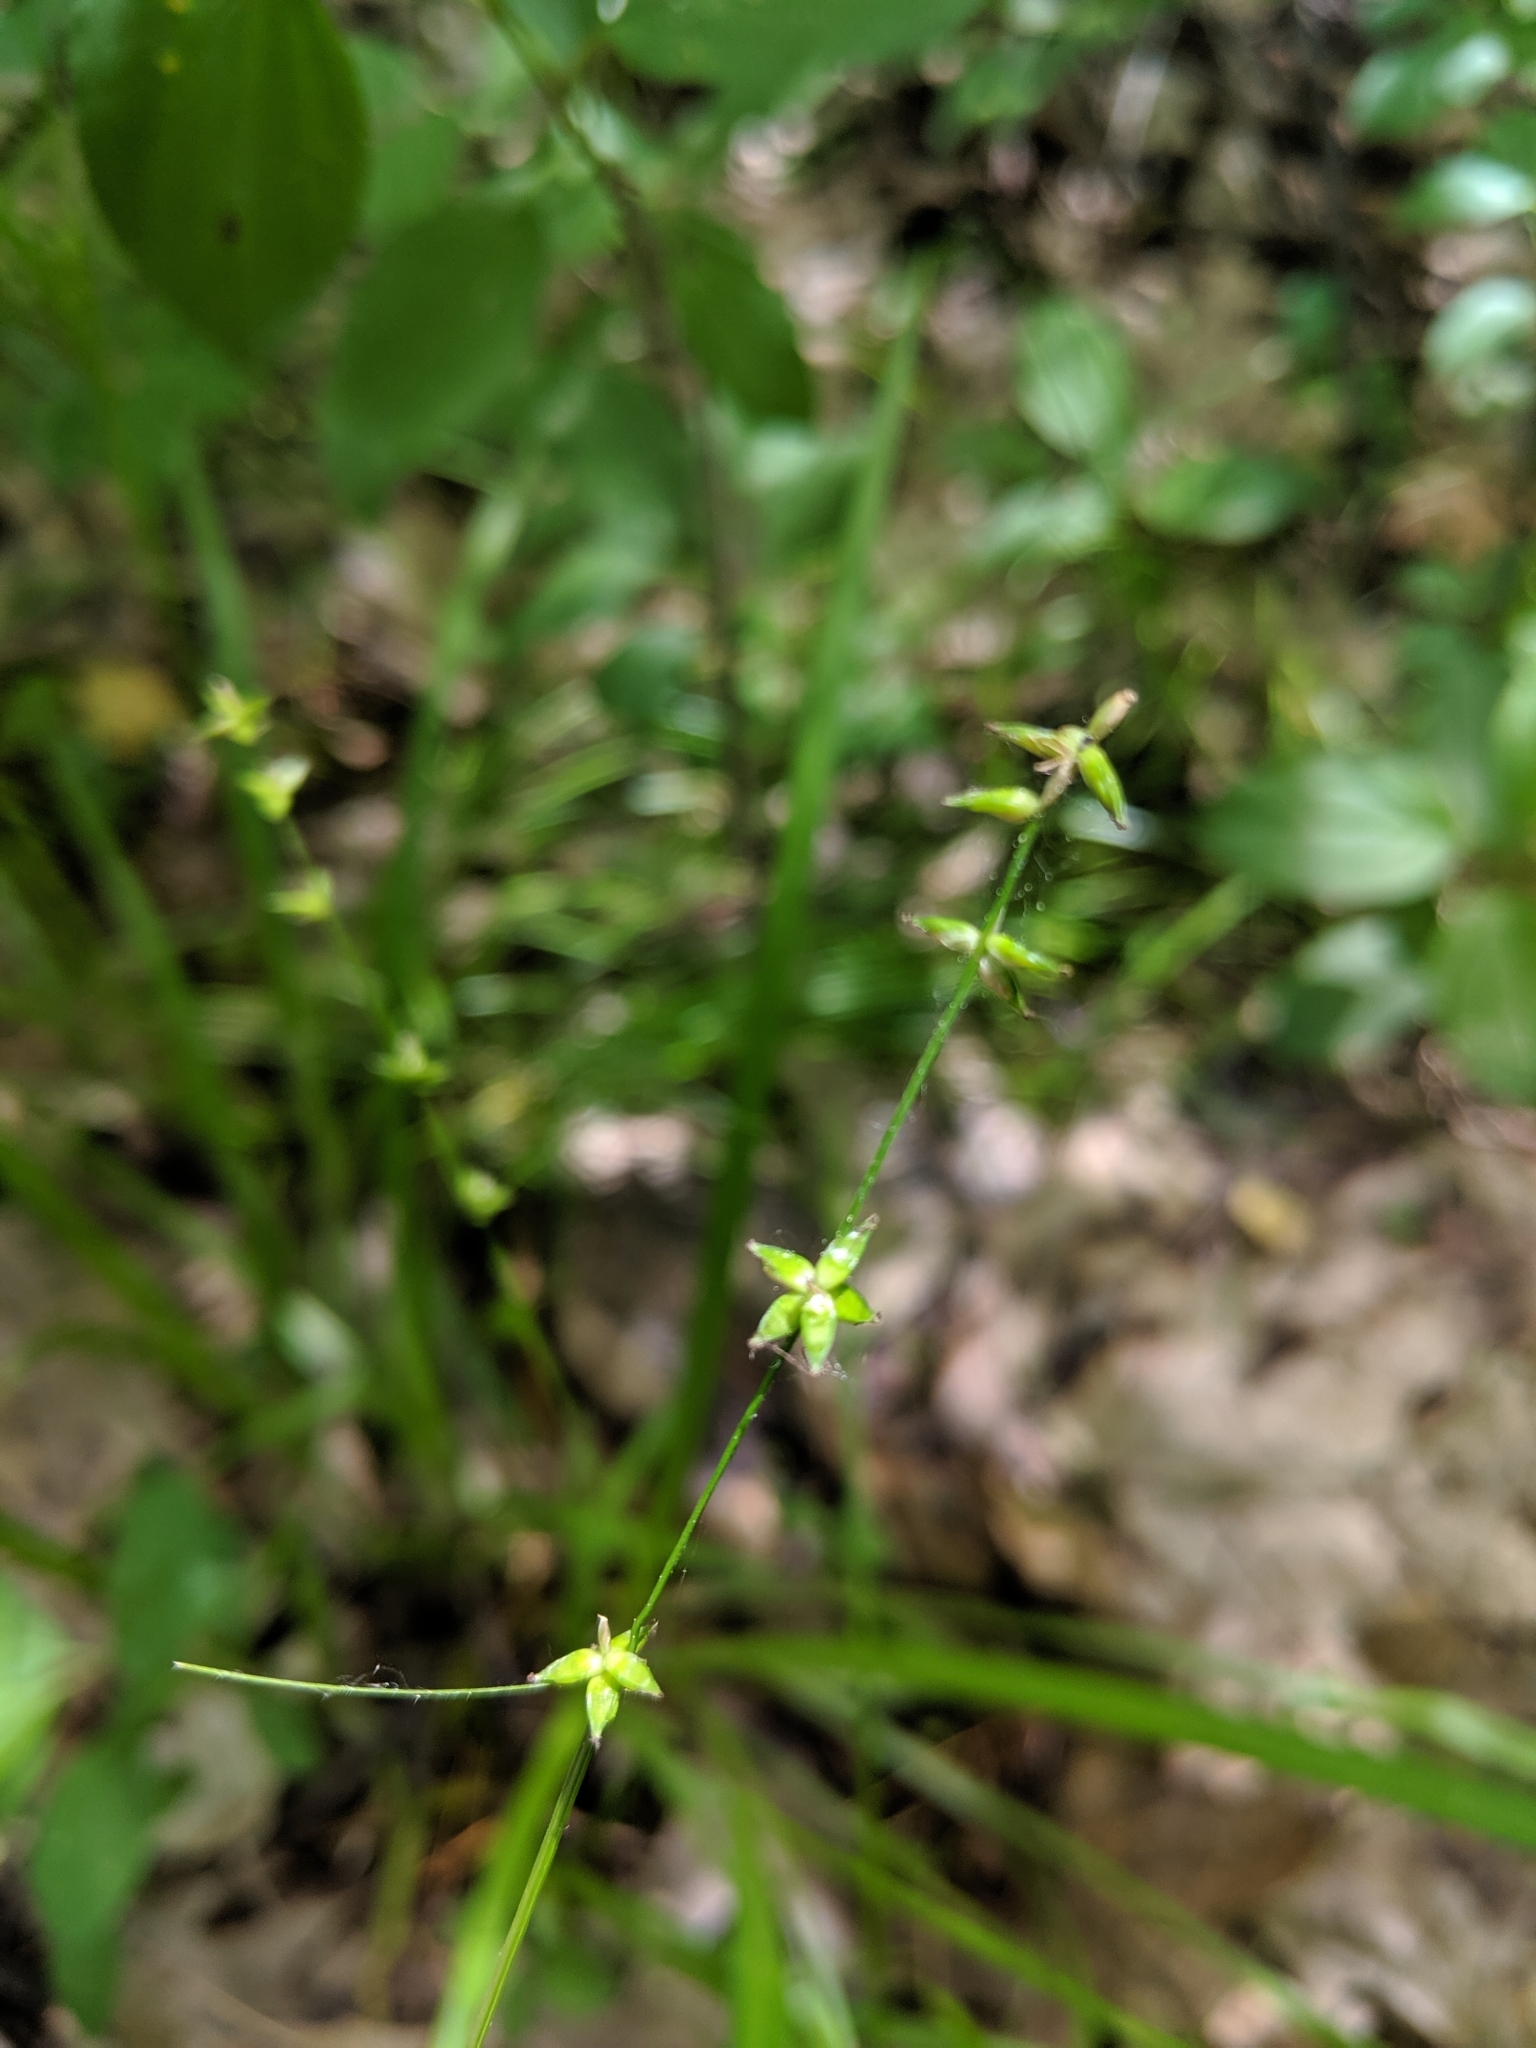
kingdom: Plantae
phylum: Tracheophyta
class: Liliopsida
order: Poales
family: Cyperaceae
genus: Carex
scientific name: Carex radiata
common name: Eastern star sedge
